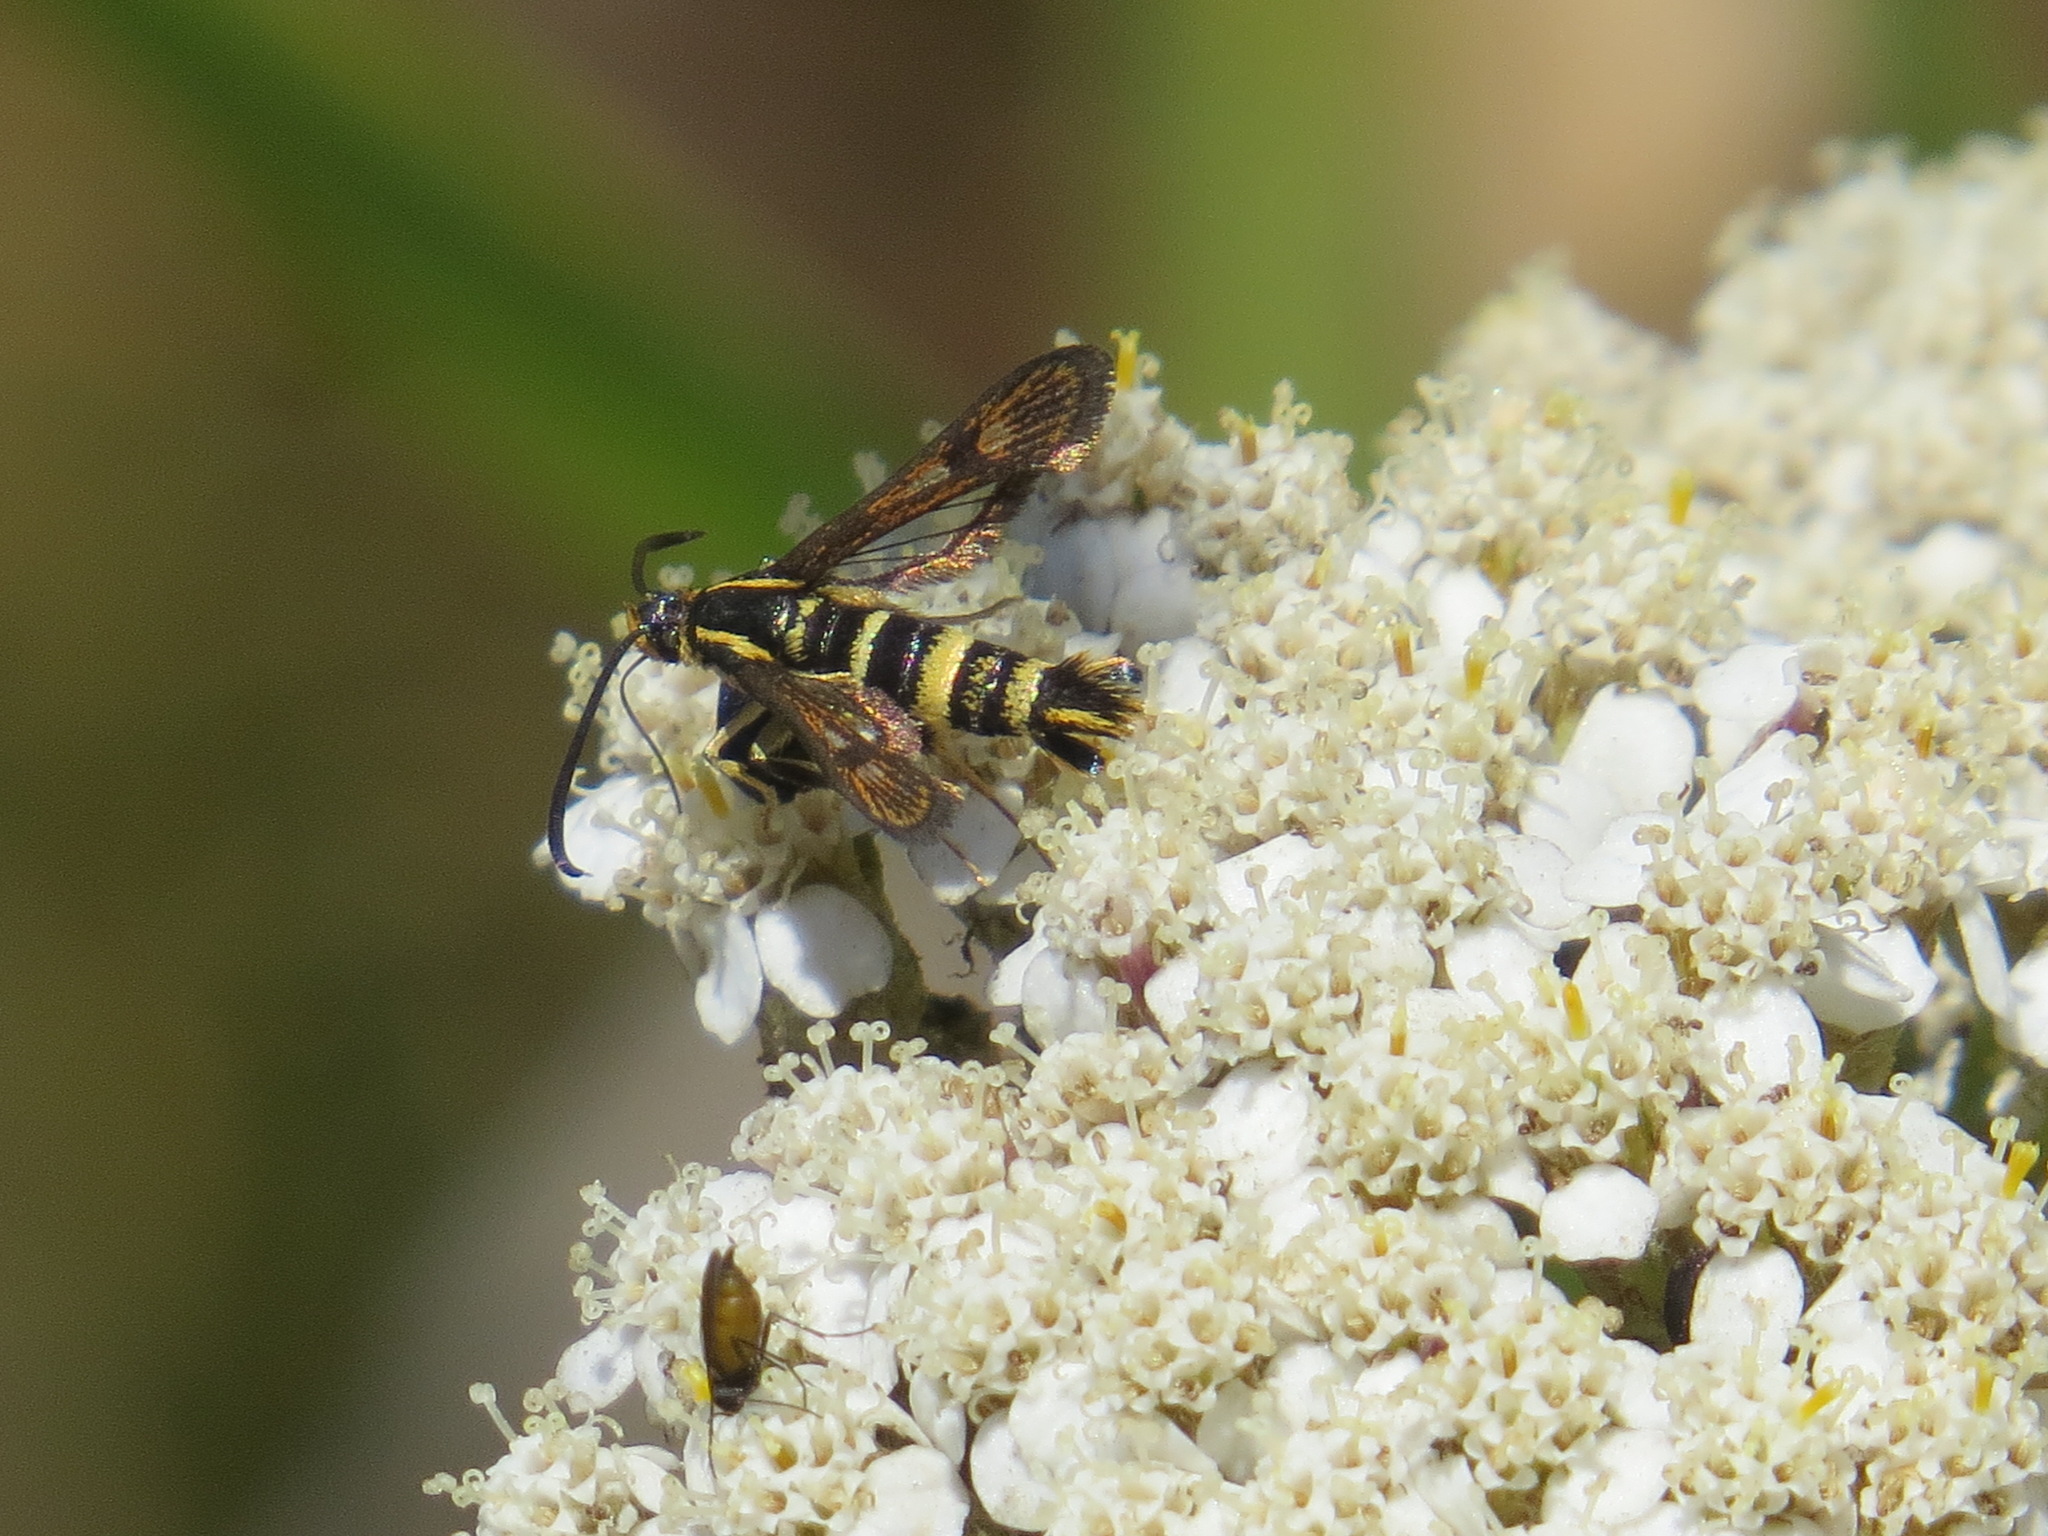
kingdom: Animalia
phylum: Arthropoda
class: Insecta
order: Lepidoptera
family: Sesiidae
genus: Synanthedon
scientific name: Synanthedon bibionipennis
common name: Strawberry crown moth
